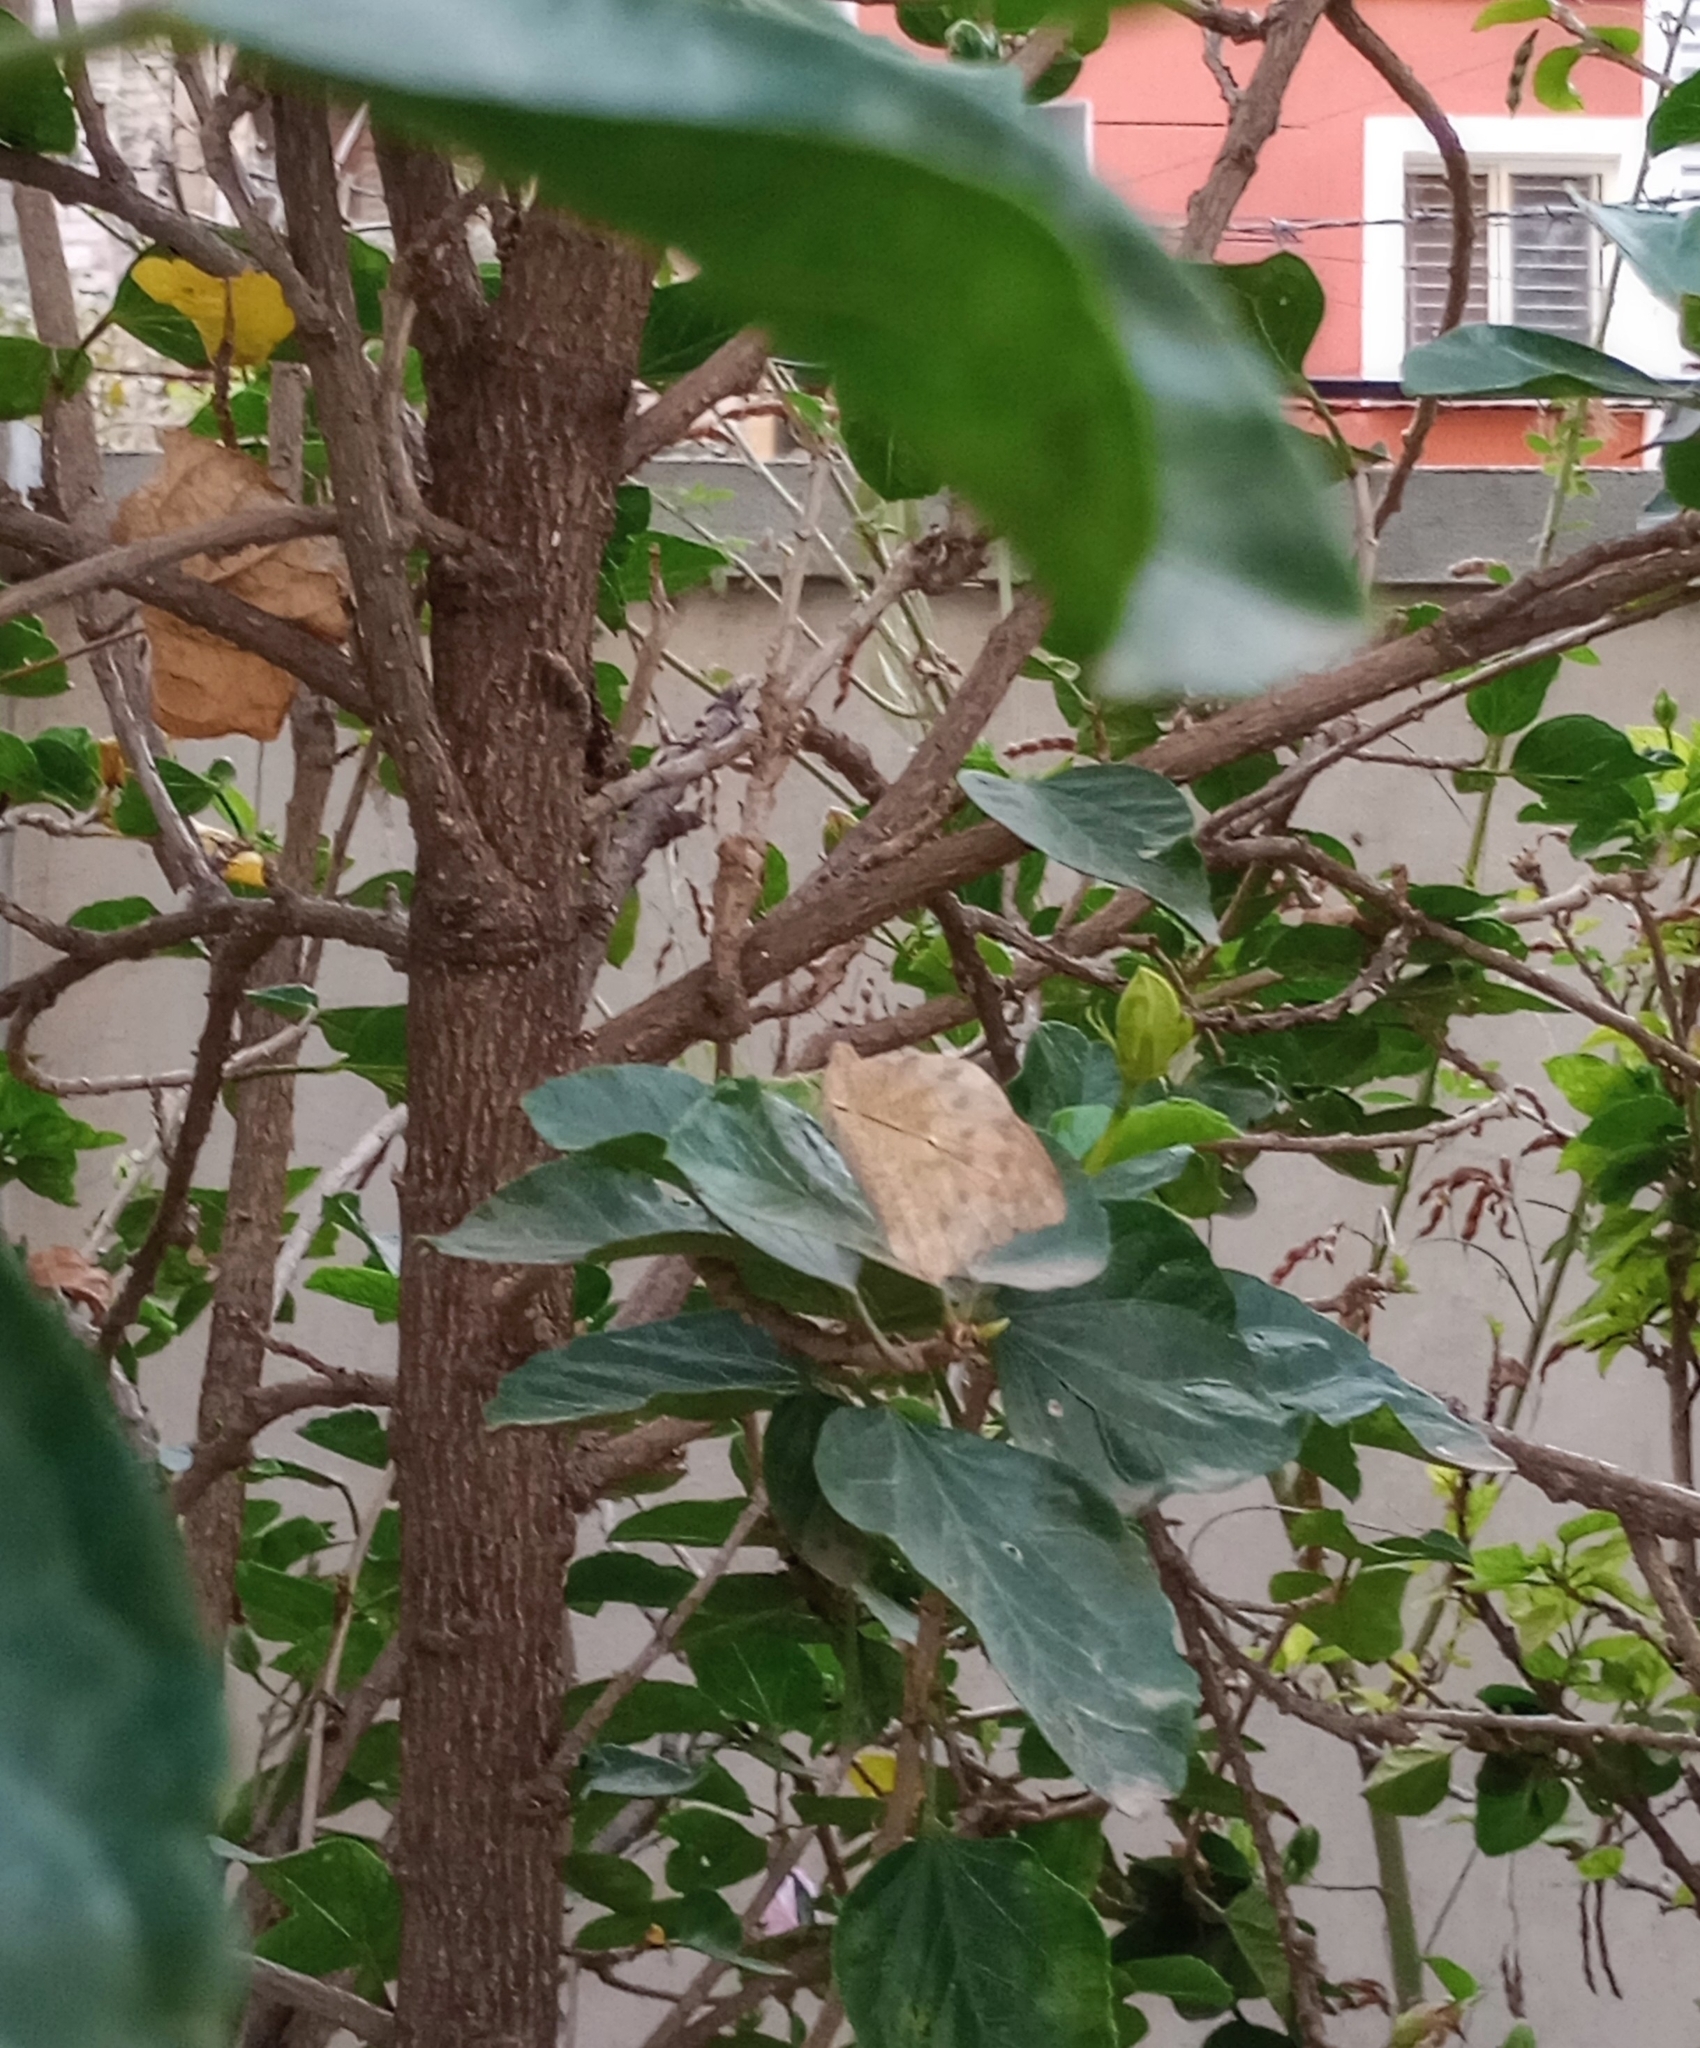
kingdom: Animalia
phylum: Arthropoda
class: Insecta
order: Lepidoptera
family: Pieridae
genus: Hebomoia
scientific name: Hebomoia glaucippe
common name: Great orange tip
